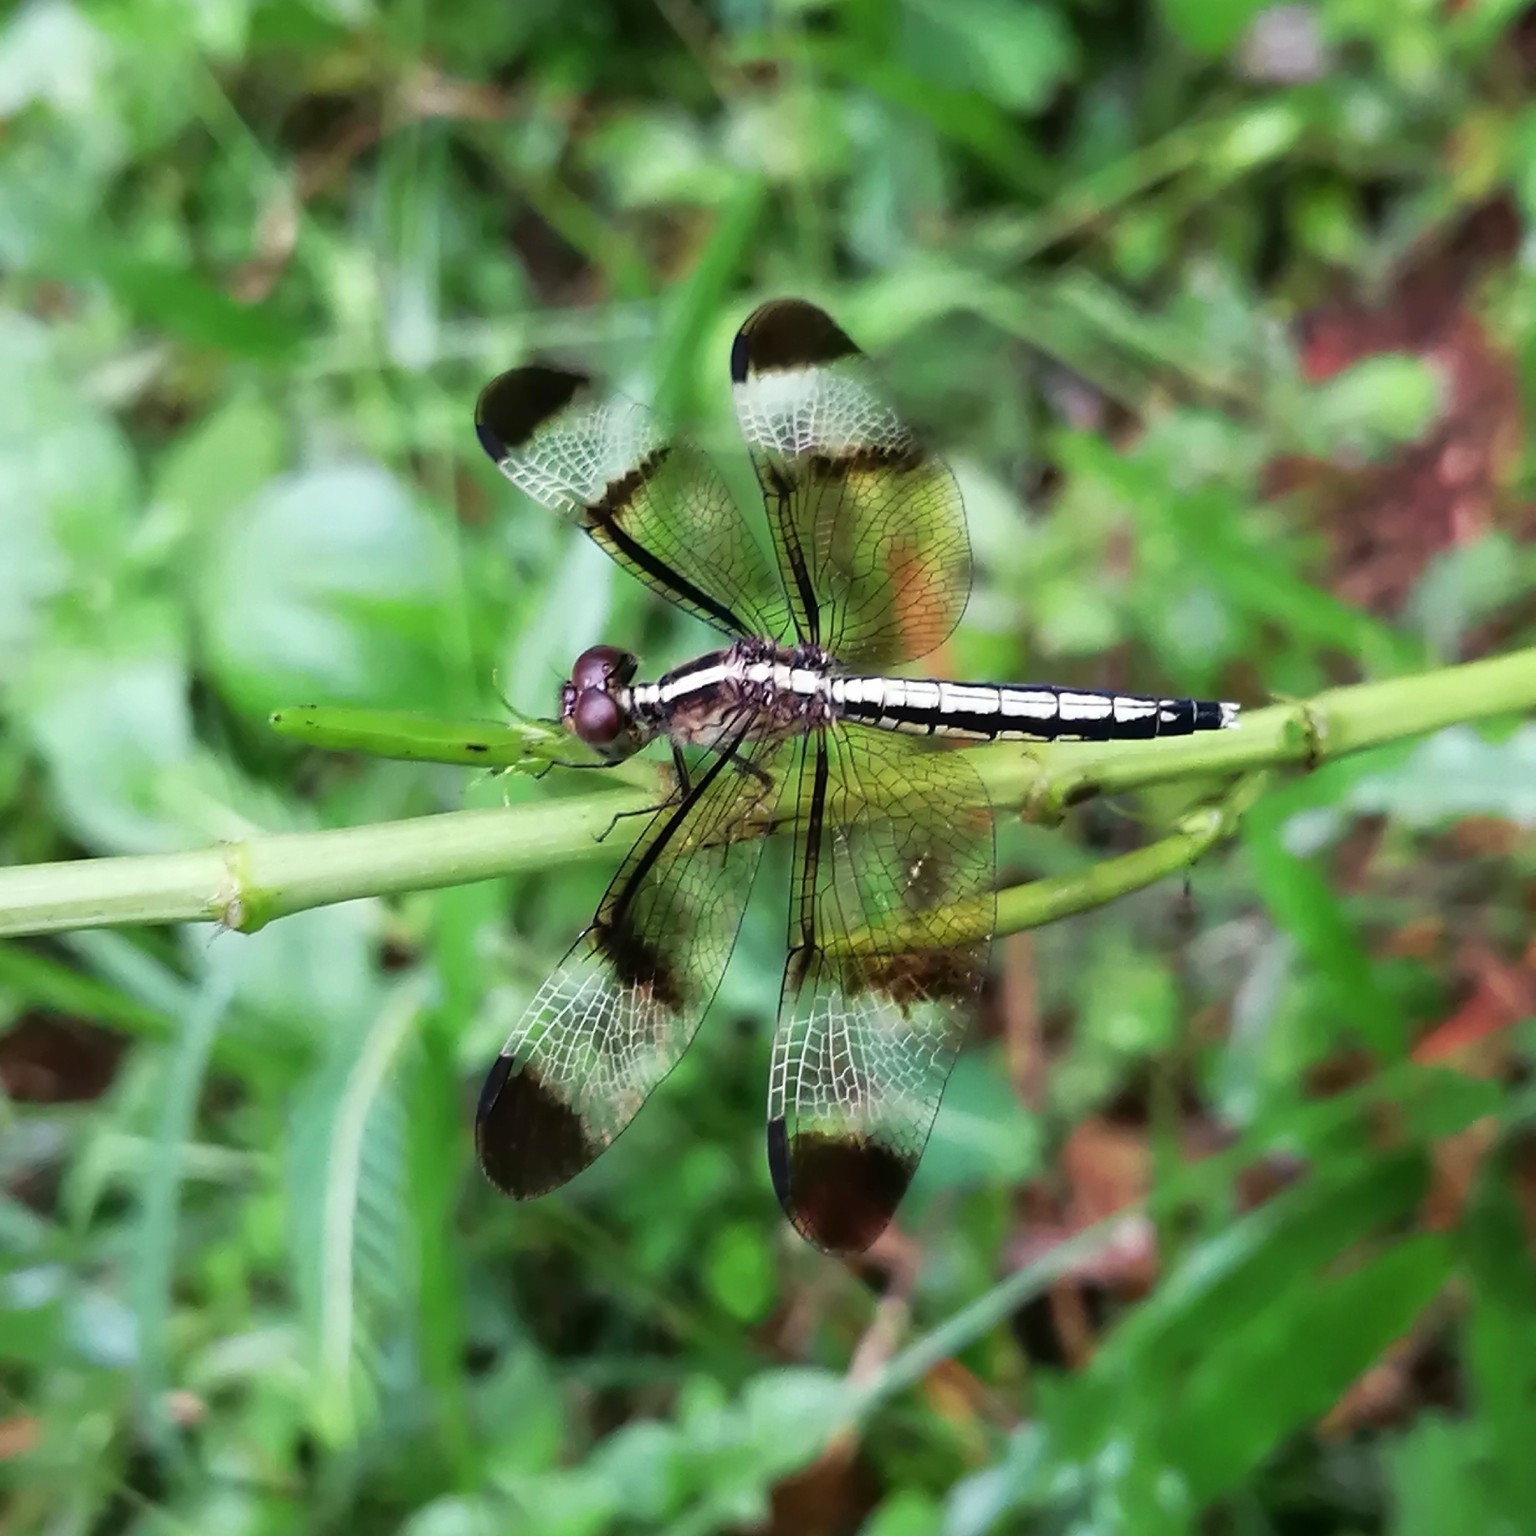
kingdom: Animalia
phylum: Arthropoda
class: Insecta
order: Odonata
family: Libellulidae
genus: Neurothemis
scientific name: Neurothemis tullia
